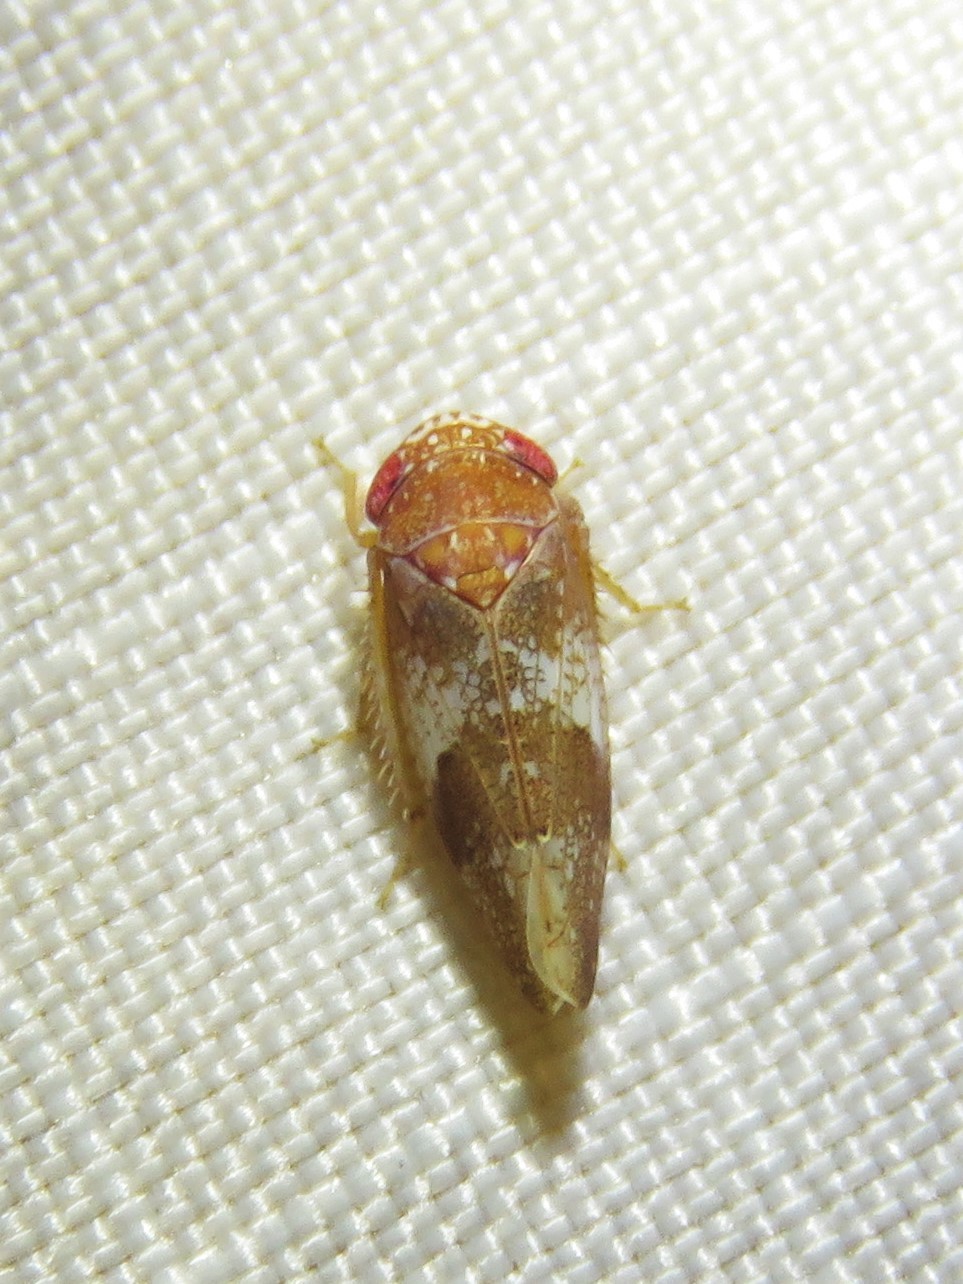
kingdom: Animalia
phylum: Arthropoda
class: Insecta
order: Hemiptera
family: Cicadellidae
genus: Norvellina
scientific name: Norvellina helenae
